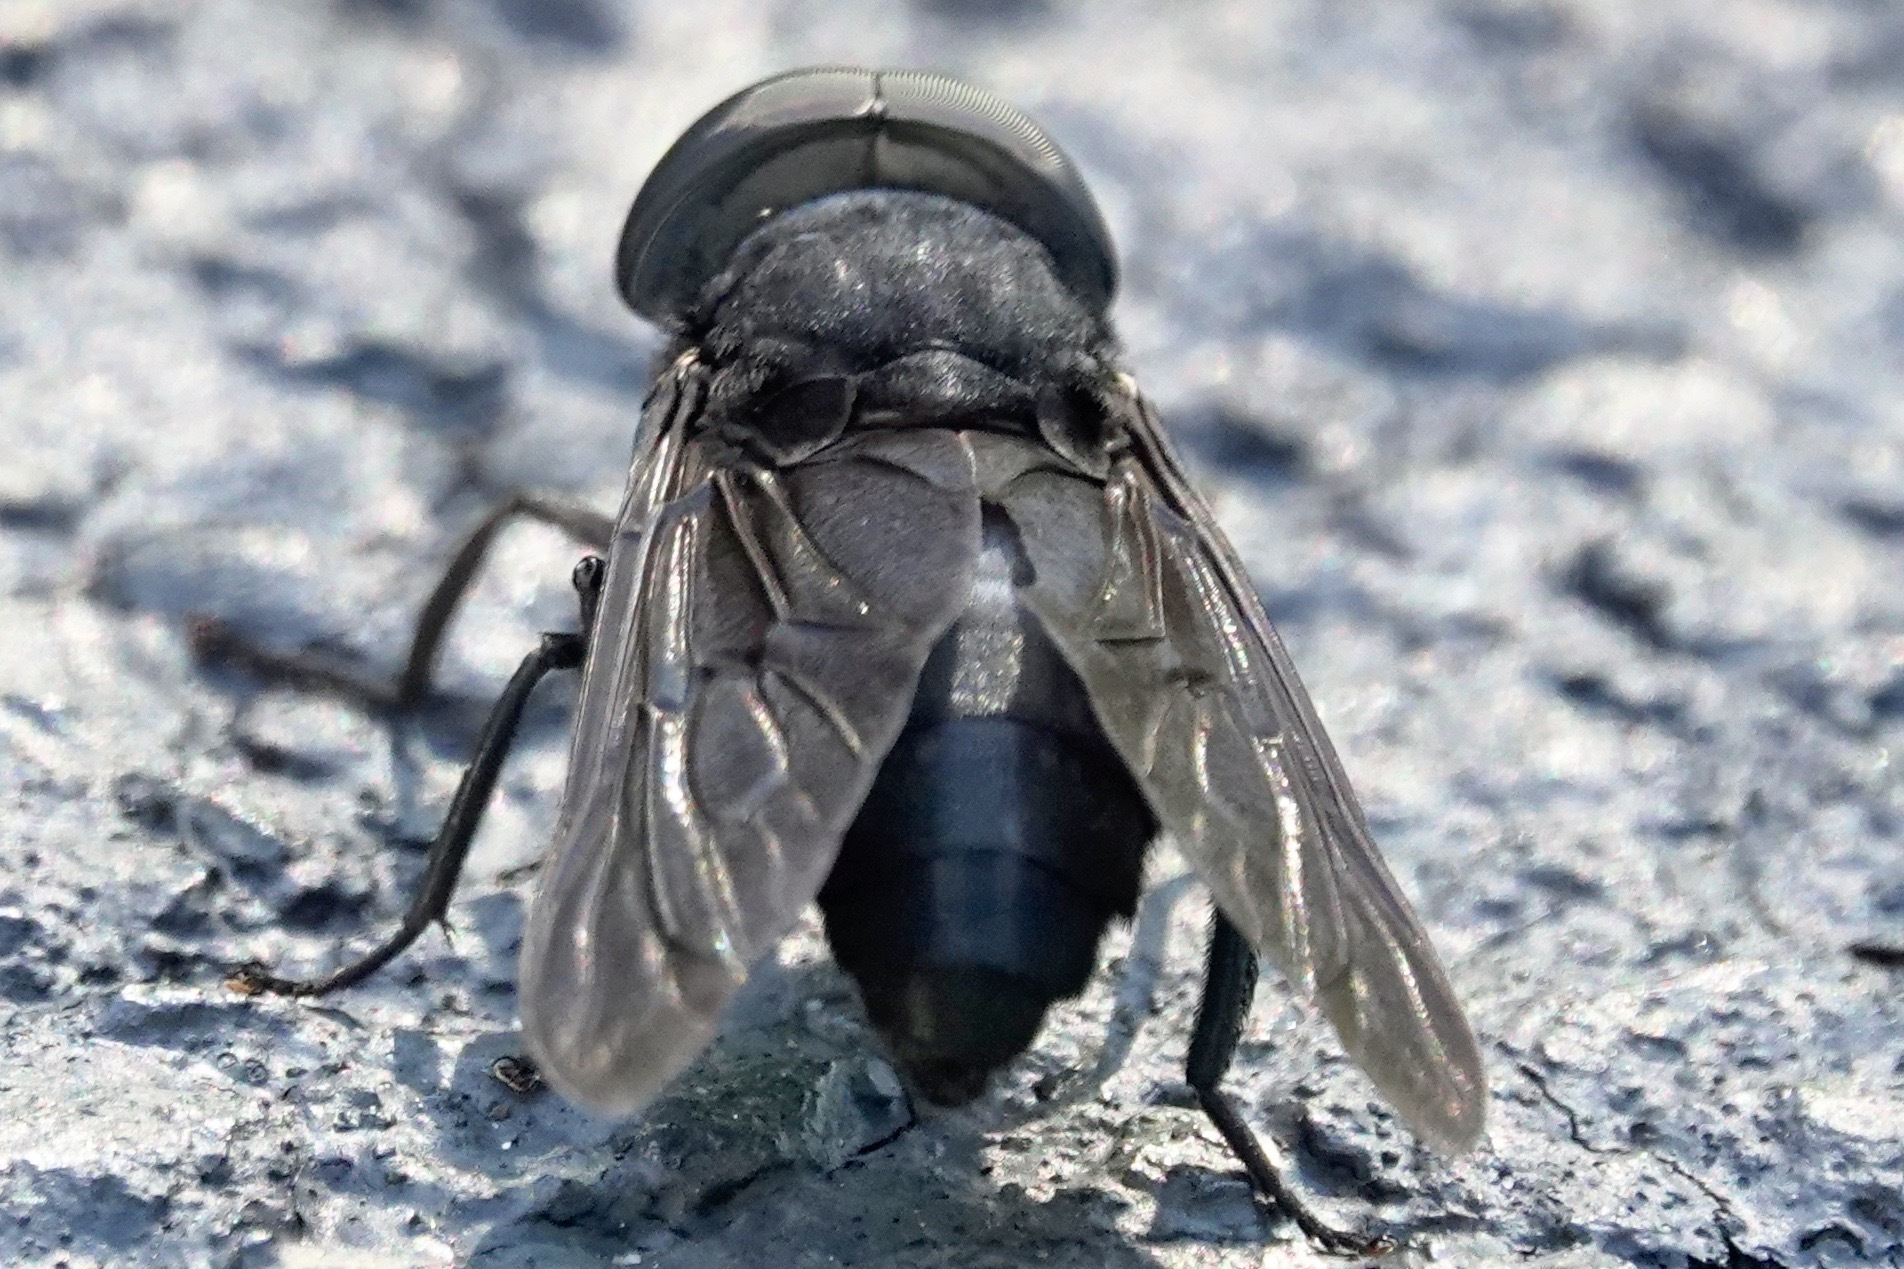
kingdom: Animalia
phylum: Arthropoda
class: Insecta
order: Diptera
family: Tabanidae
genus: Tabanus
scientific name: Tabanus atratus
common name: Black horse fly
